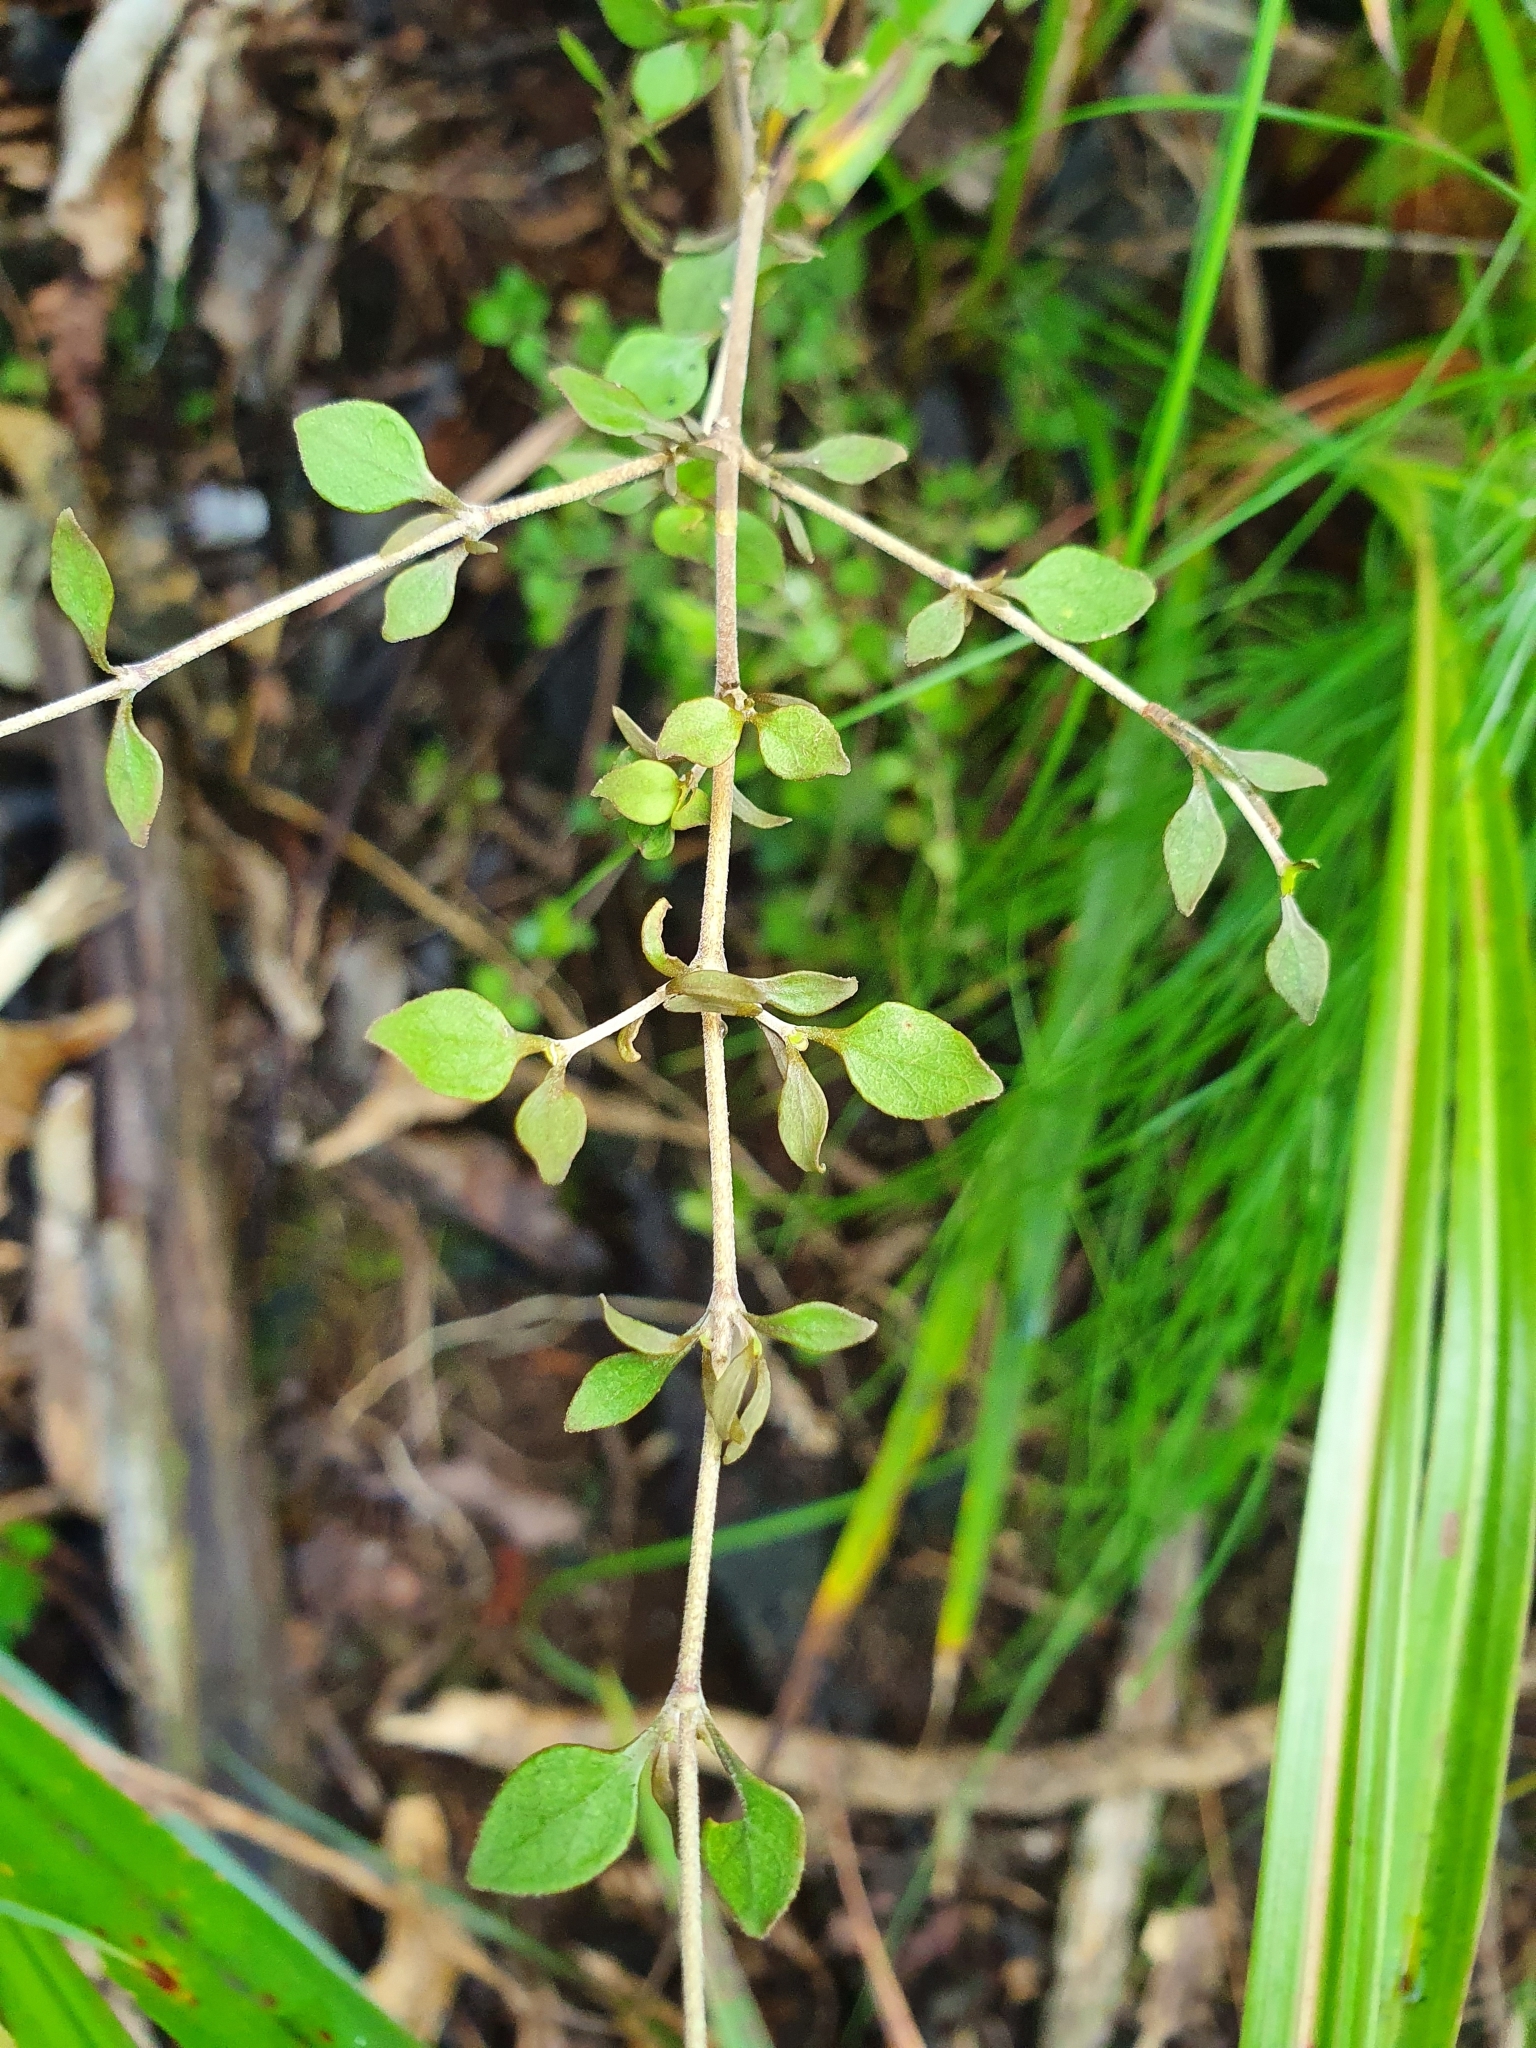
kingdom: Plantae
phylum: Tracheophyta
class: Magnoliopsida
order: Gentianales
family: Rubiaceae
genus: Coprosma
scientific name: Coprosma rhamnoides
